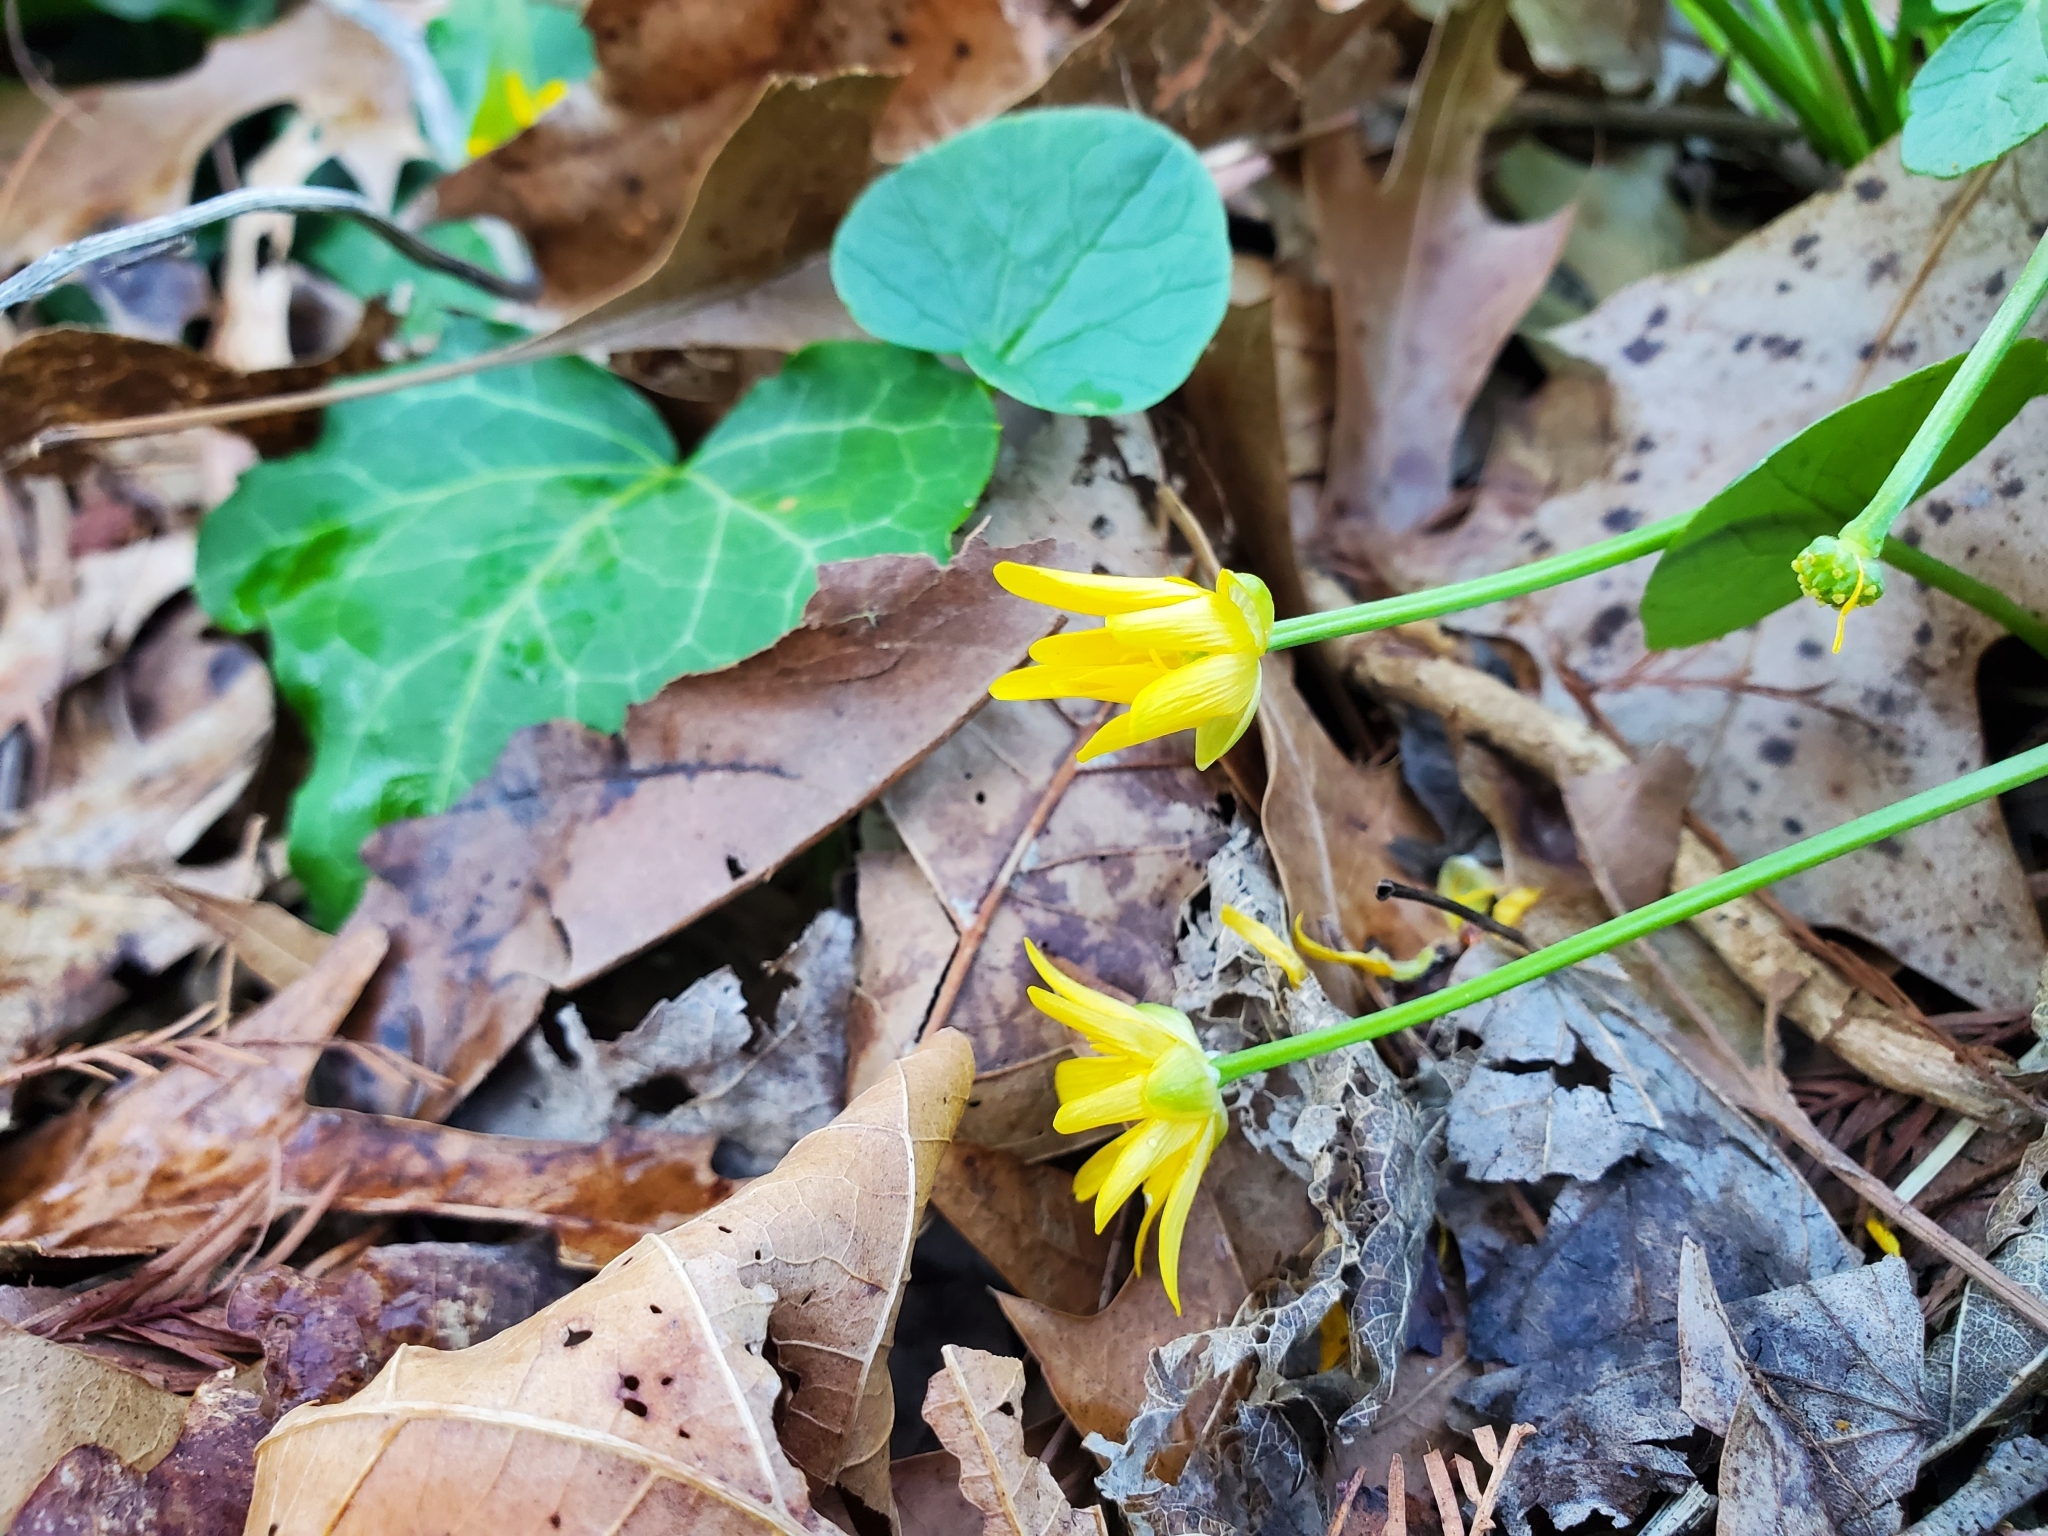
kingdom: Plantae
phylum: Tracheophyta
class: Magnoliopsida
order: Ranunculales
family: Ranunculaceae
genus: Ficaria
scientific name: Ficaria verna
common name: Lesser celandine
